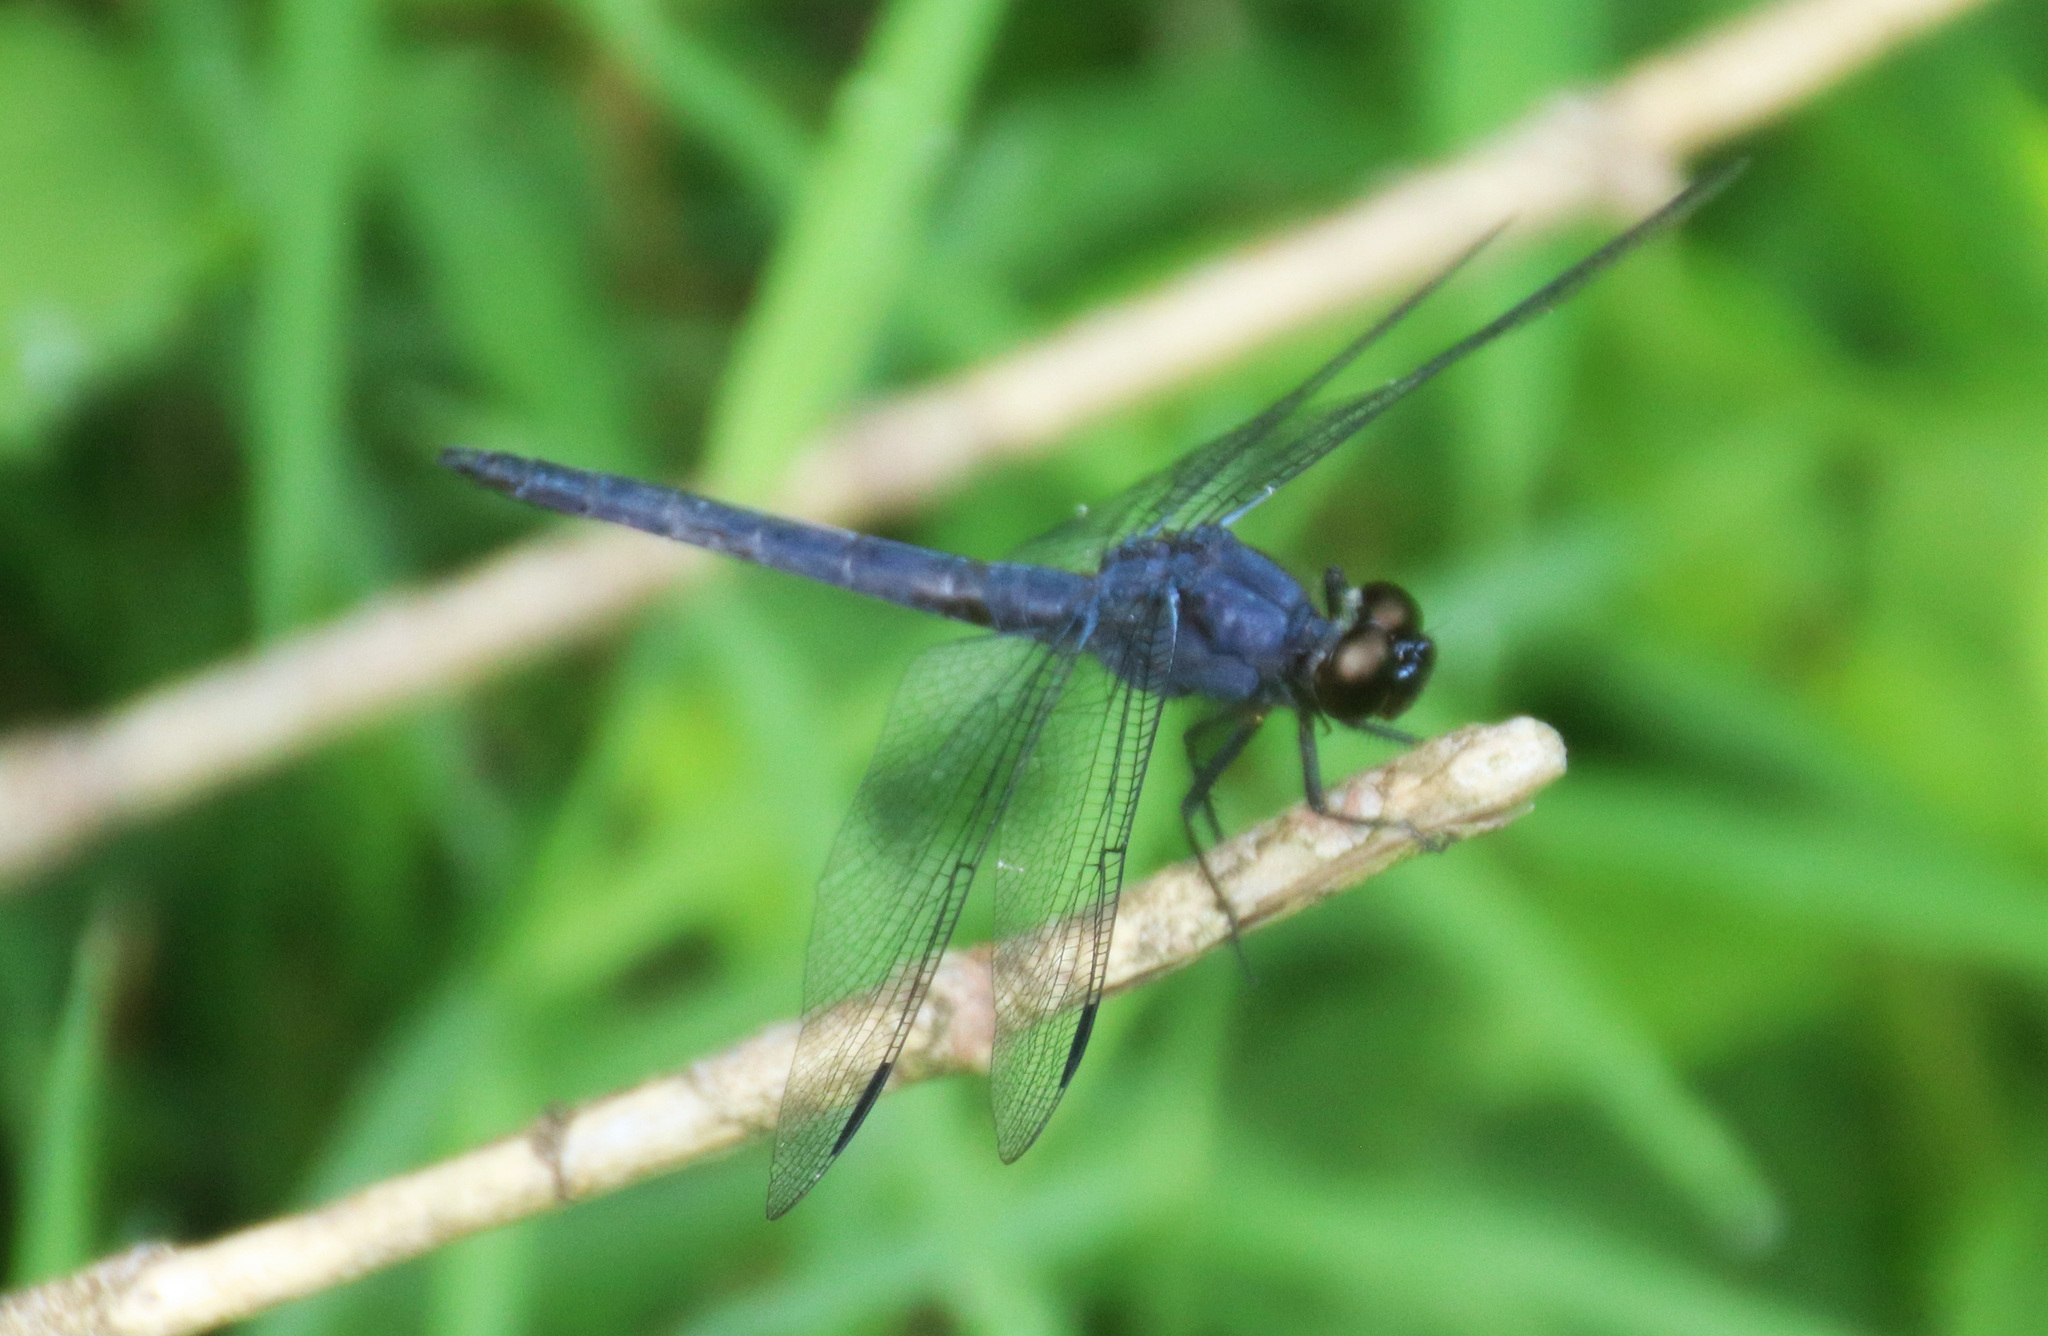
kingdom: Animalia
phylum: Arthropoda
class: Insecta
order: Odonata
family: Libellulidae
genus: Libellula
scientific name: Libellula incesta
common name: Slaty skimmer
